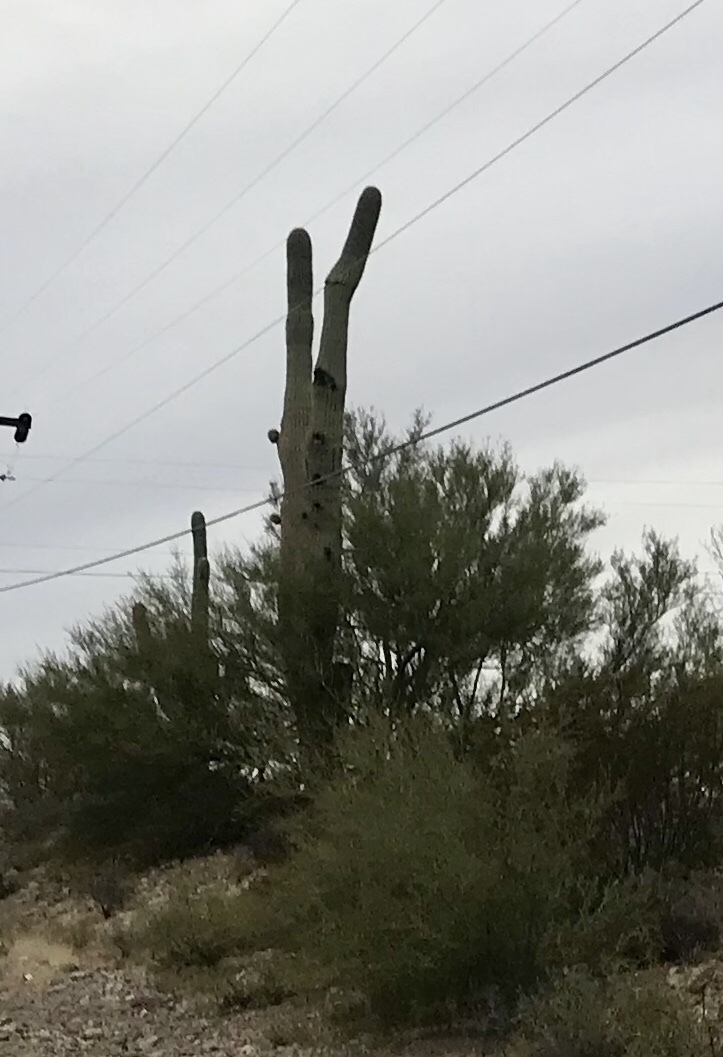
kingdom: Plantae
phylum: Tracheophyta
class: Magnoliopsida
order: Caryophyllales
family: Cactaceae
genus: Carnegiea
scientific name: Carnegiea gigantea
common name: Saguaro
